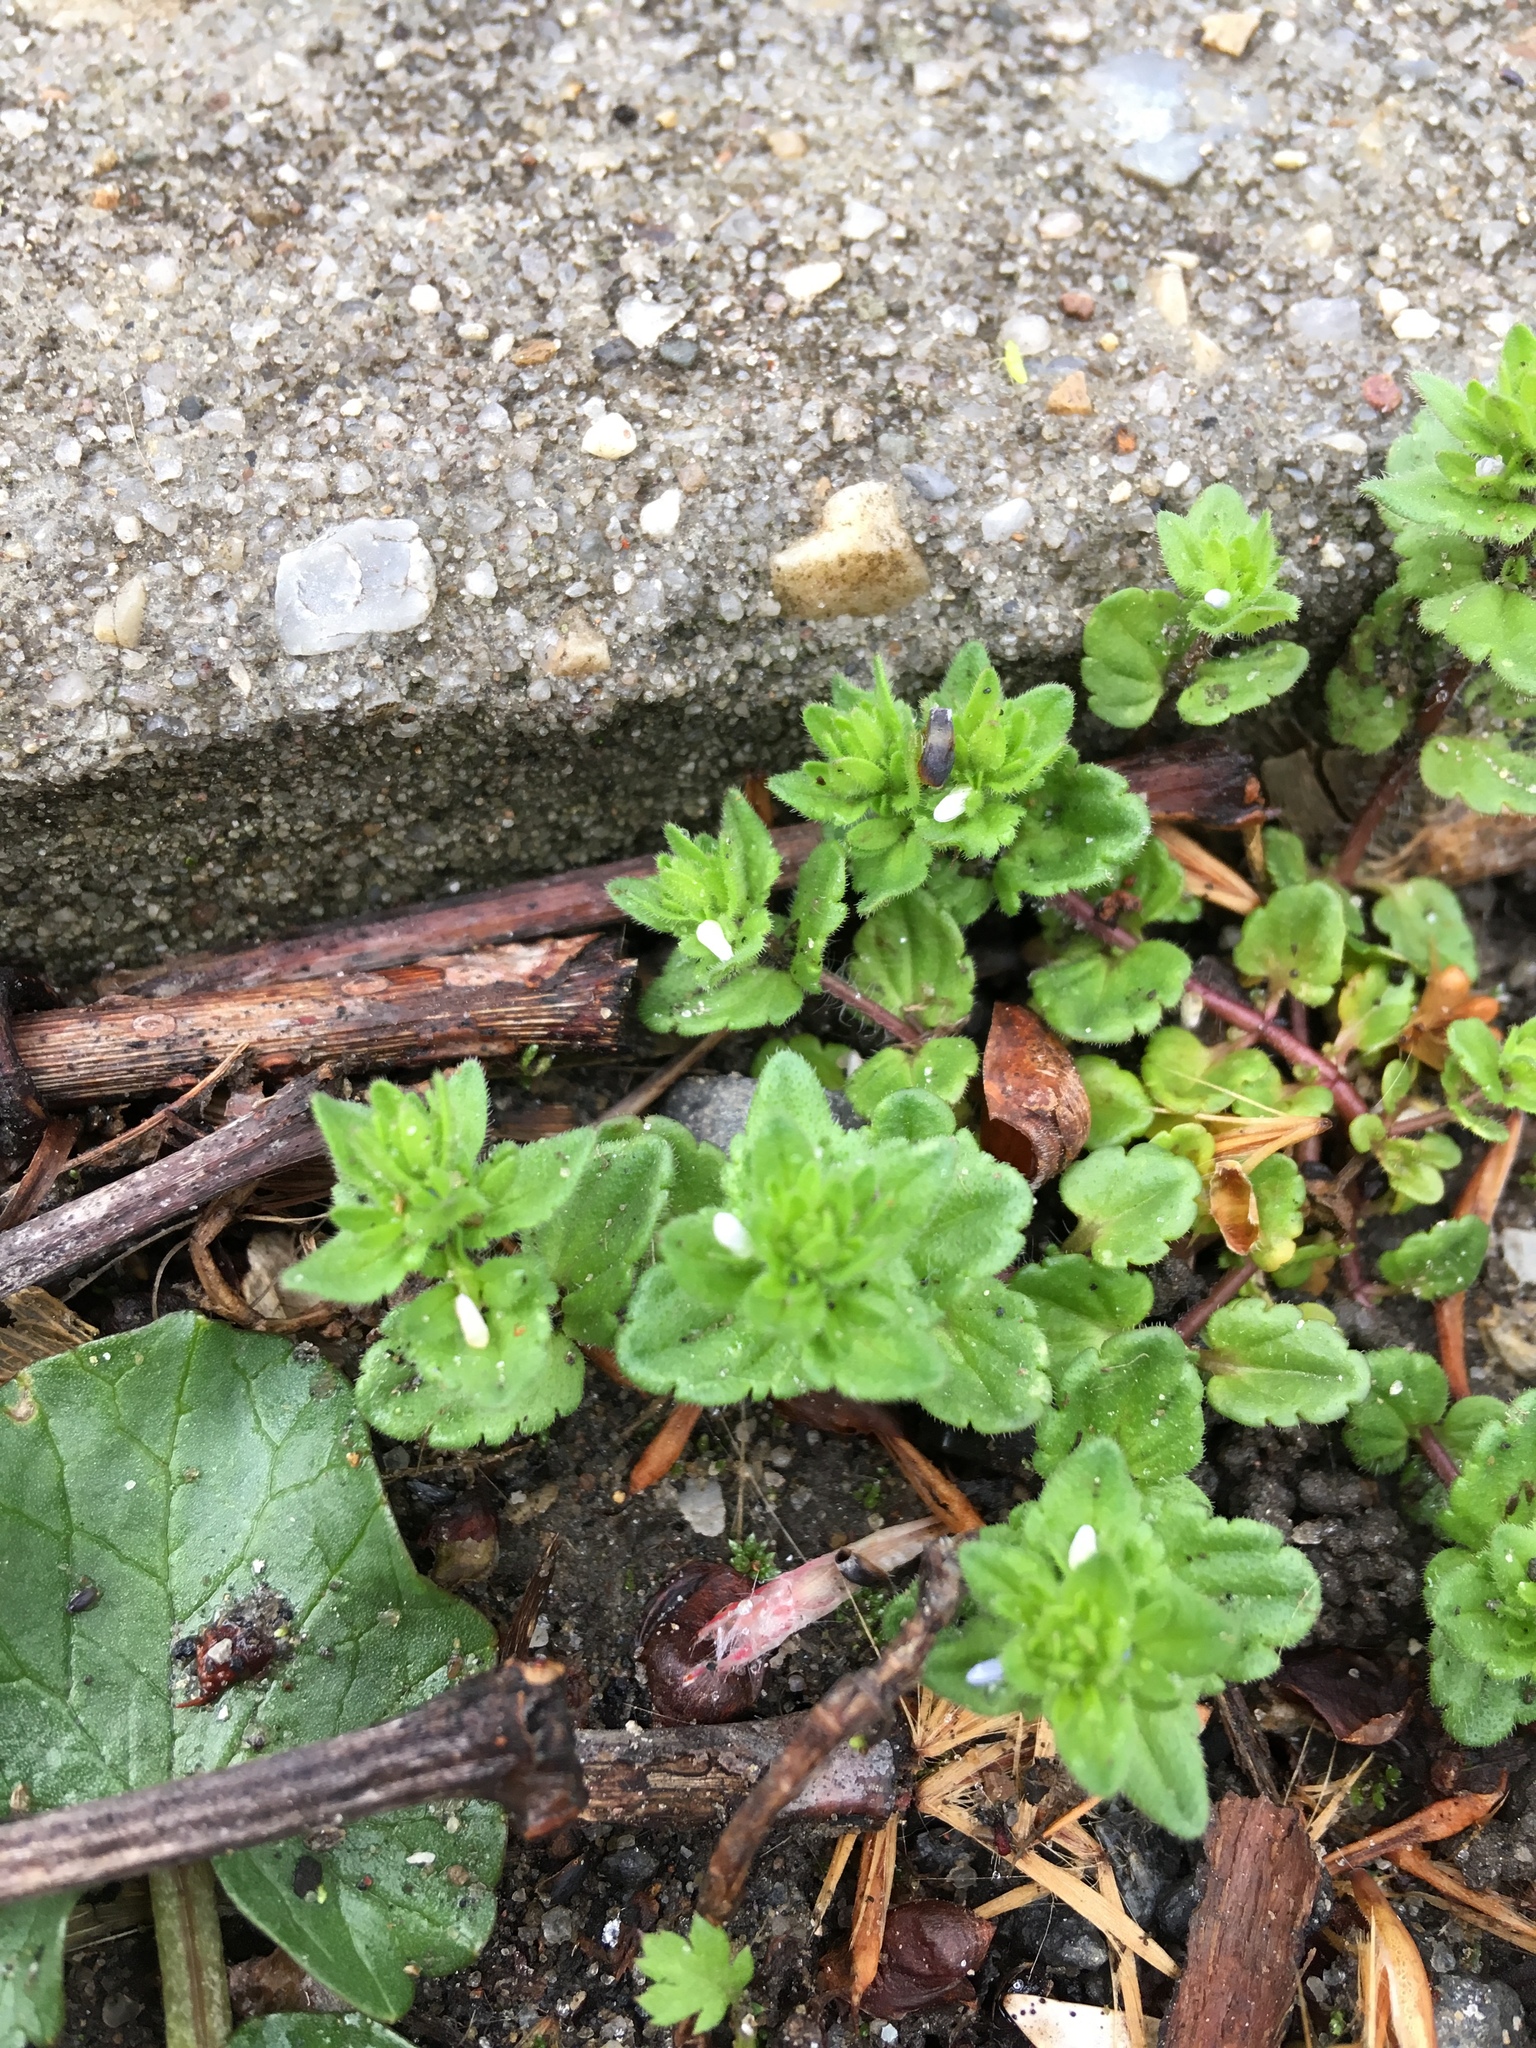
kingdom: Plantae
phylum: Tracheophyta
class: Magnoliopsida
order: Lamiales
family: Plantaginaceae
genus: Veronica
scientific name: Veronica persica
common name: Common field-speedwell
